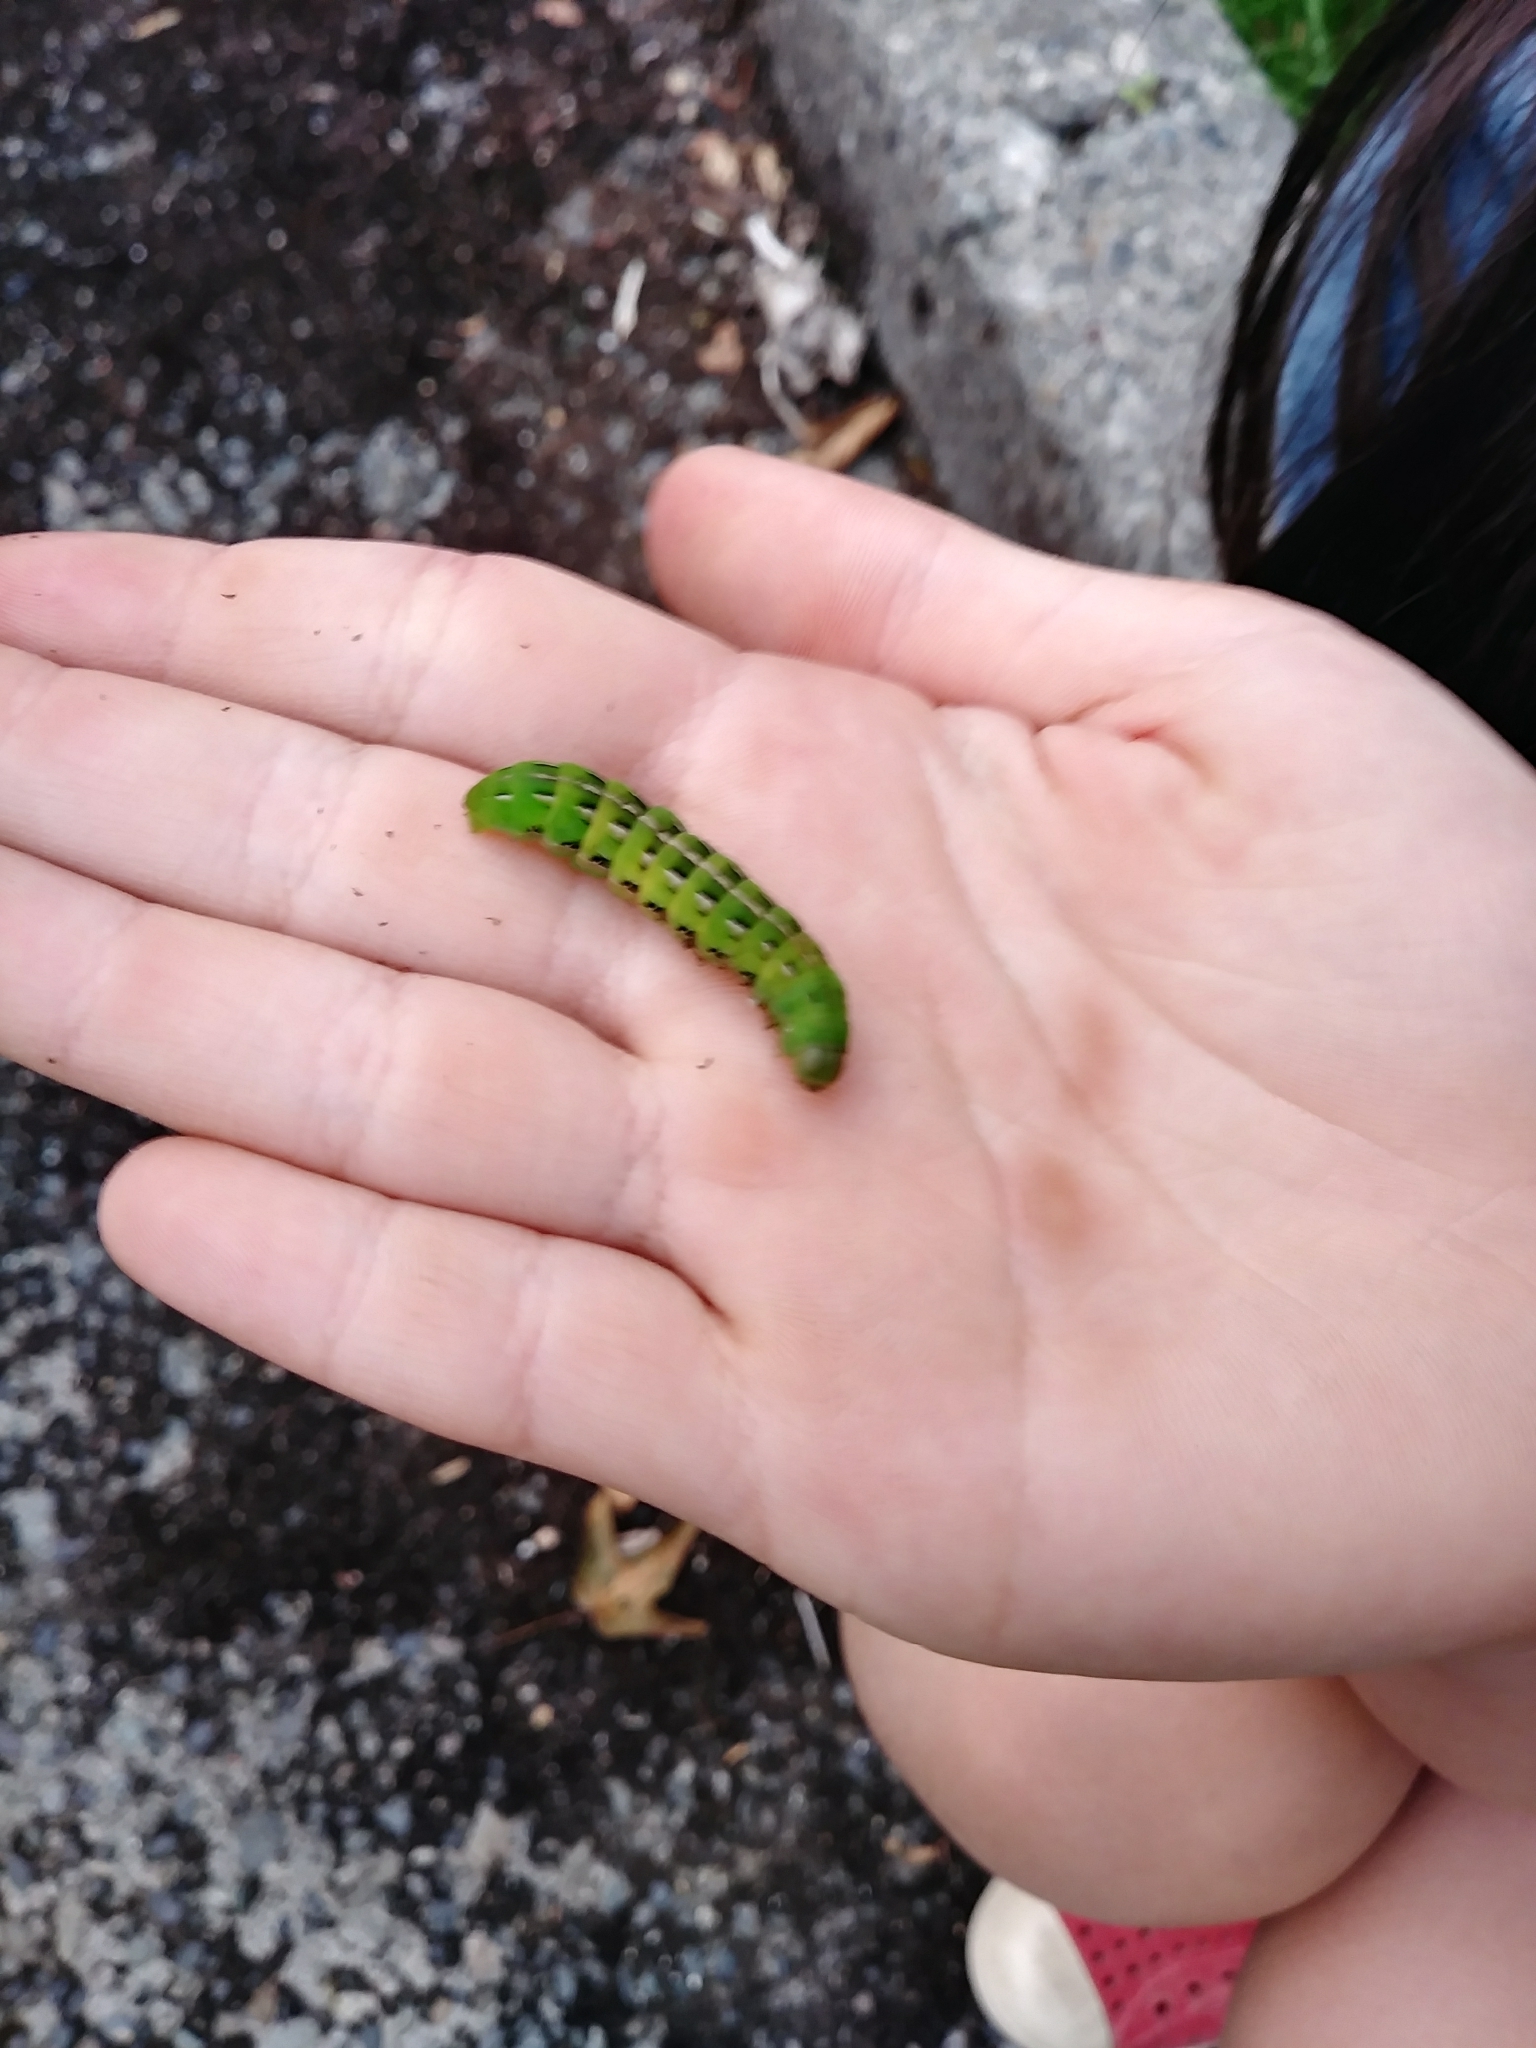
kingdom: Animalia
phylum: Arthropoda
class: Insecta
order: Lepidoptera
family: Noctuidae
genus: Dargida
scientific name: Dargida procinctus
